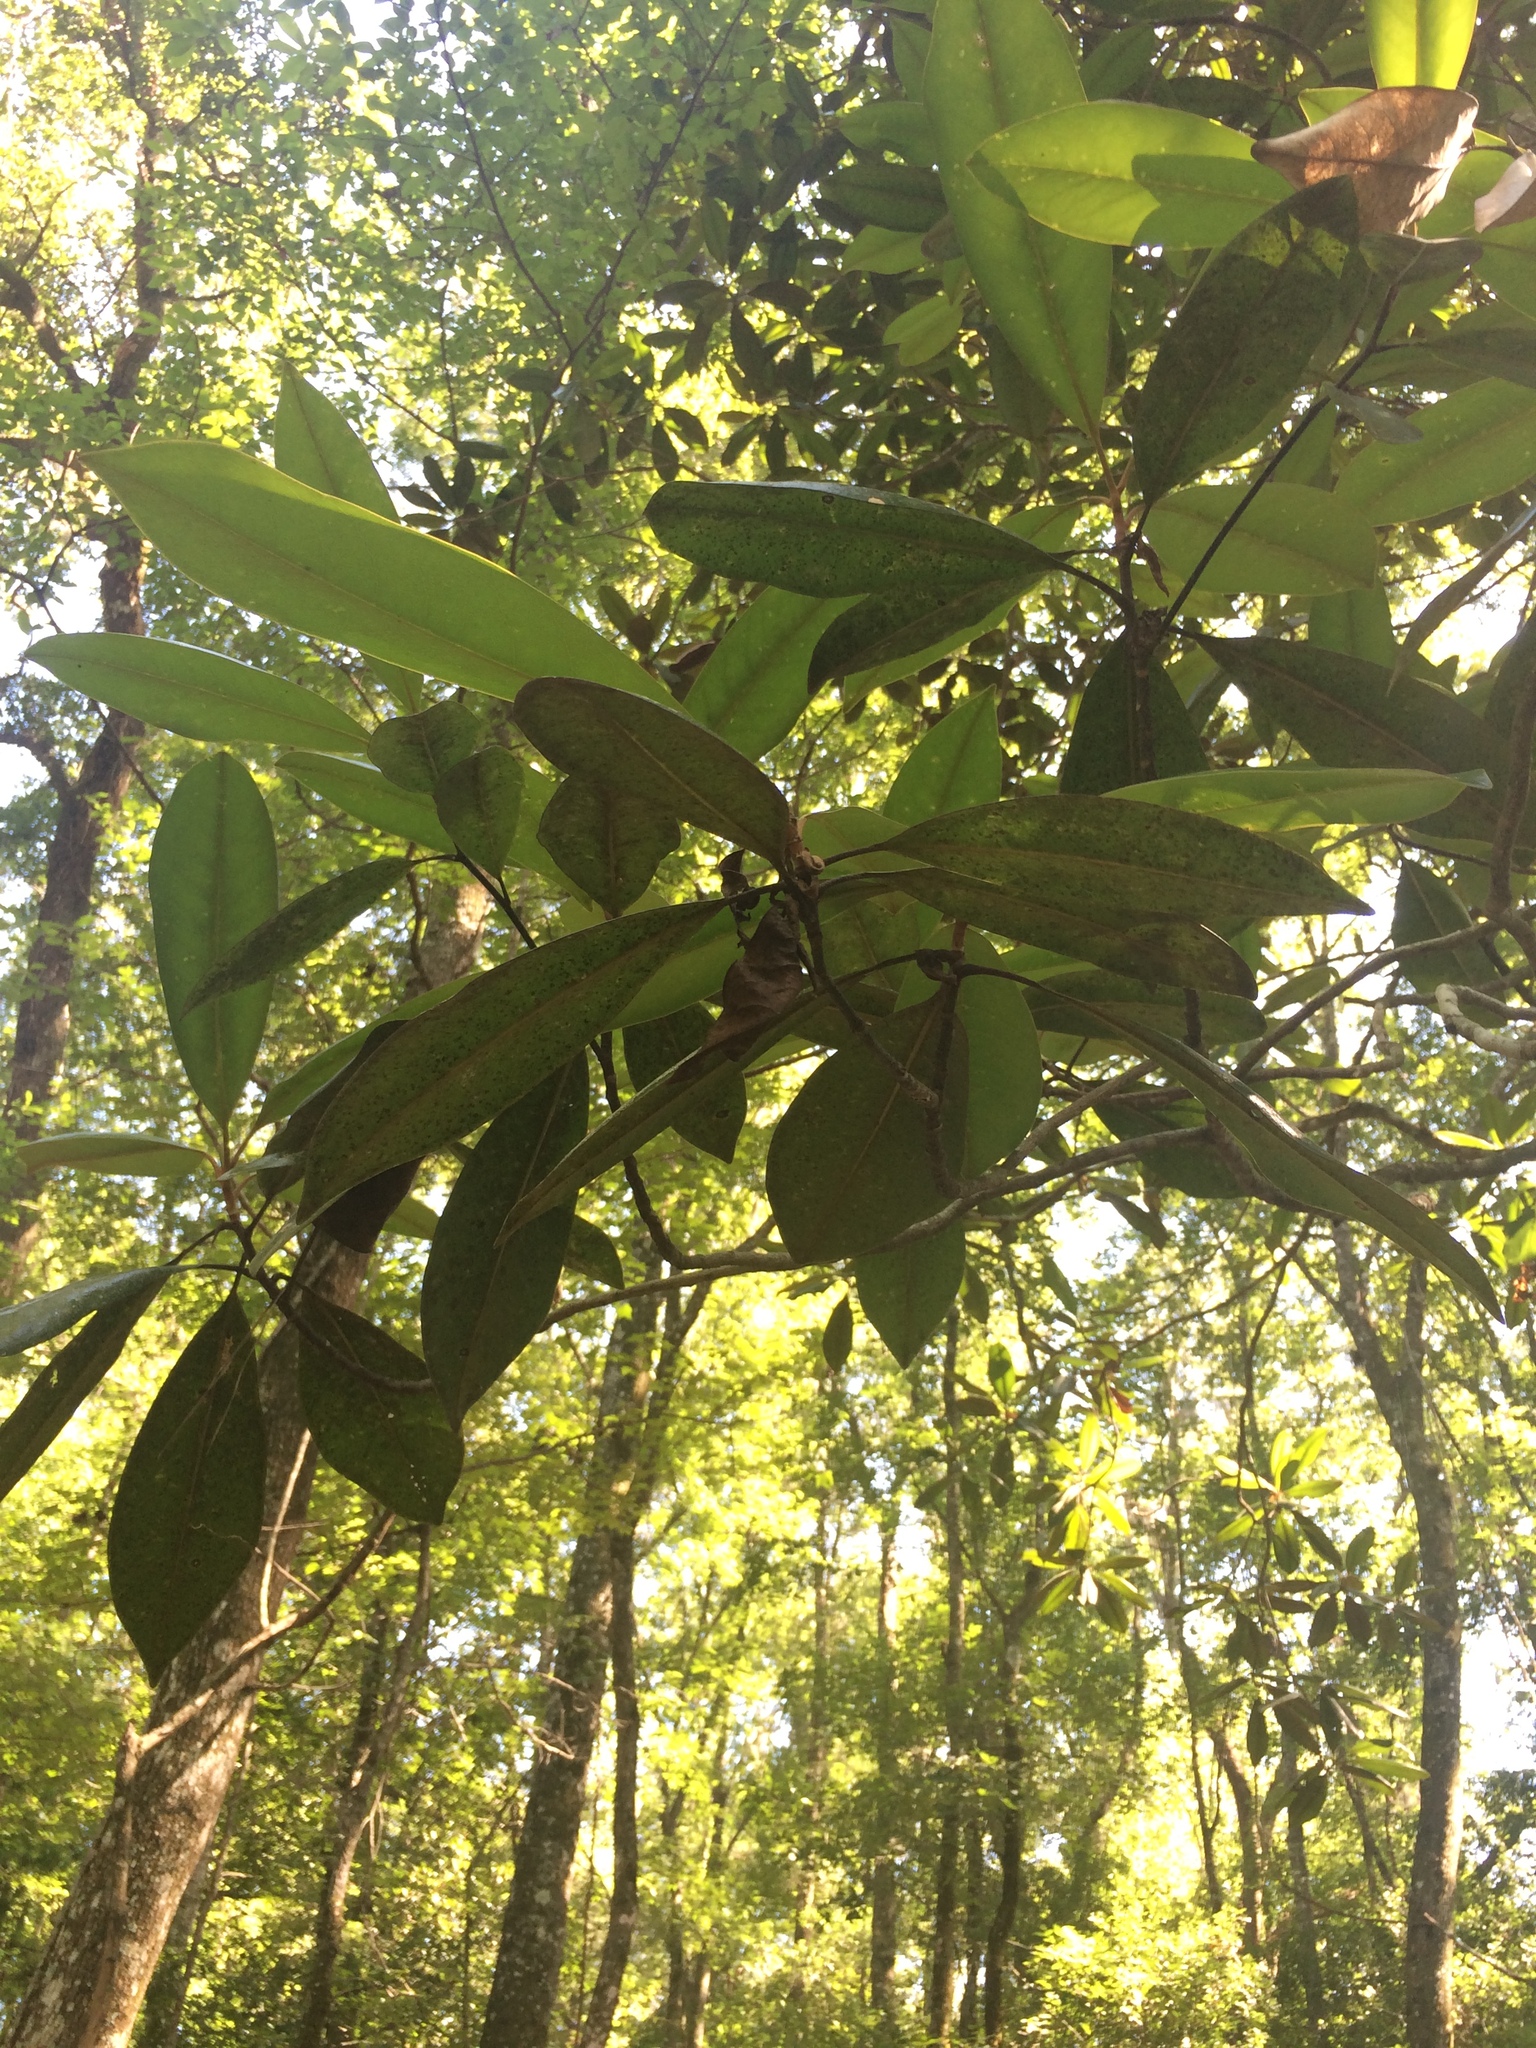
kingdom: Plantae
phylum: Tracheophyta
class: Magnoliopsida
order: Magnoliales
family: Magnoliaceae
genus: Magnolia
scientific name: Magnolia grandiflora
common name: Southern magnolia
